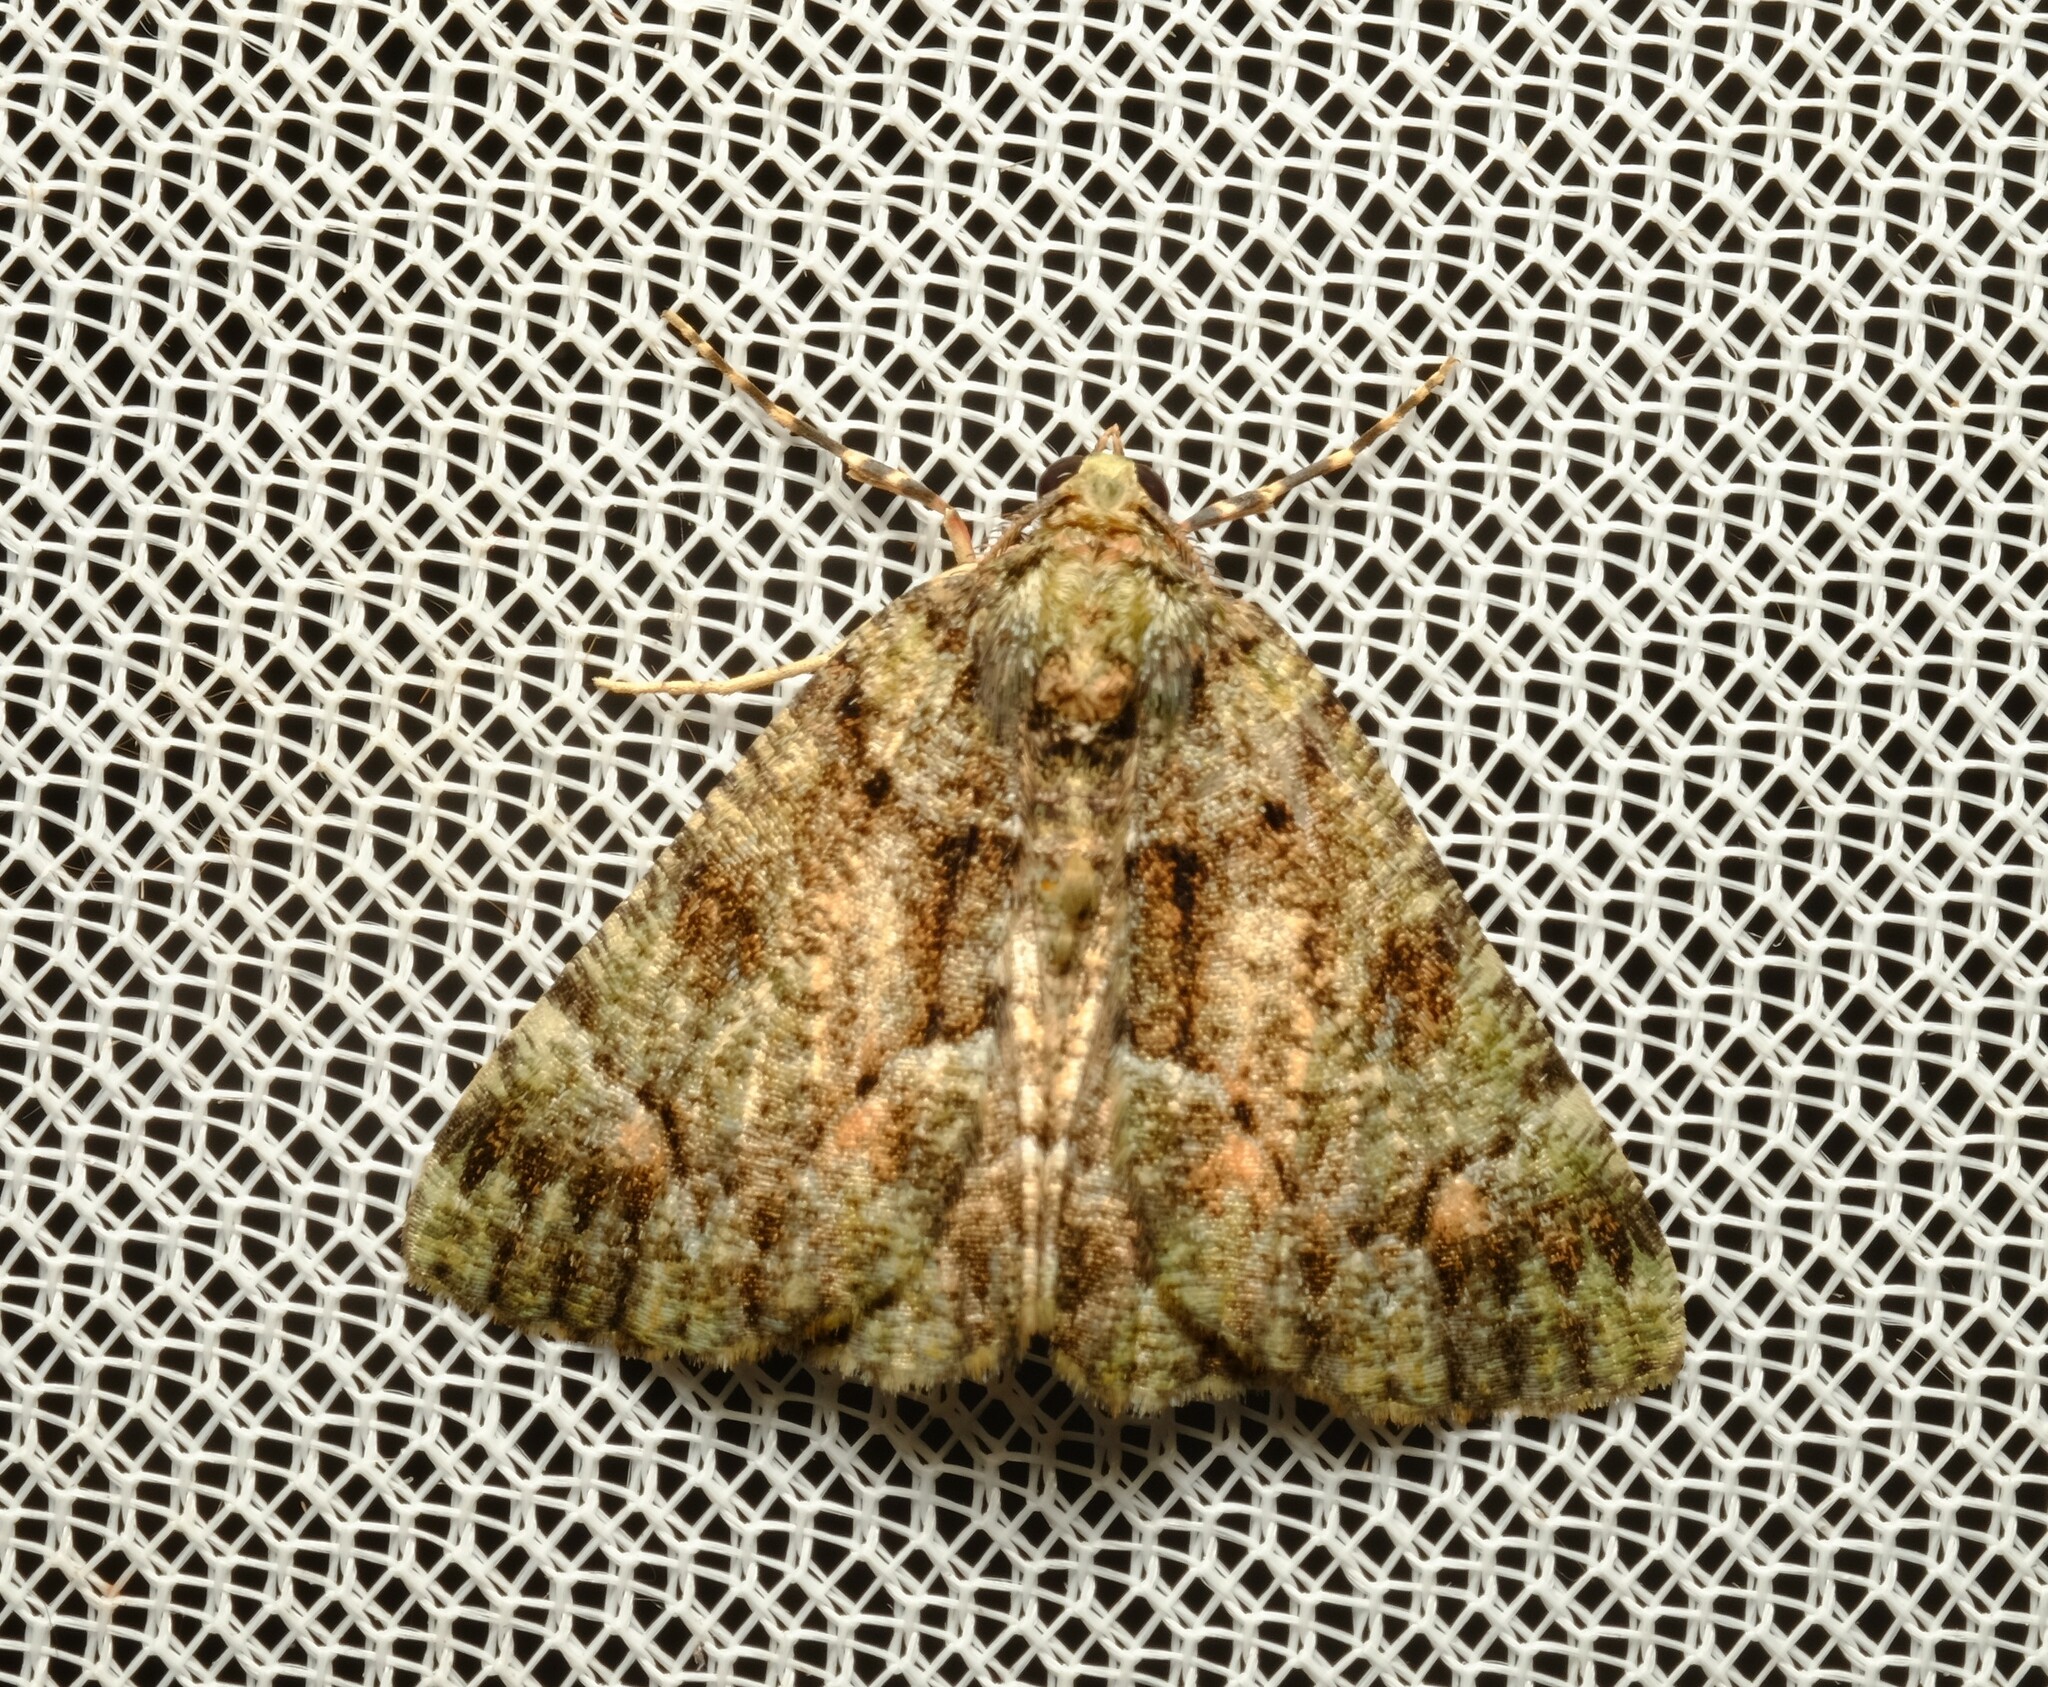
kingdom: Animalia
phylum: Arthropoda
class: Insecta
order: Lepidoptera
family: Geometridae
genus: Aeolochroma
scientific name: Aeolochroma metarhodata
